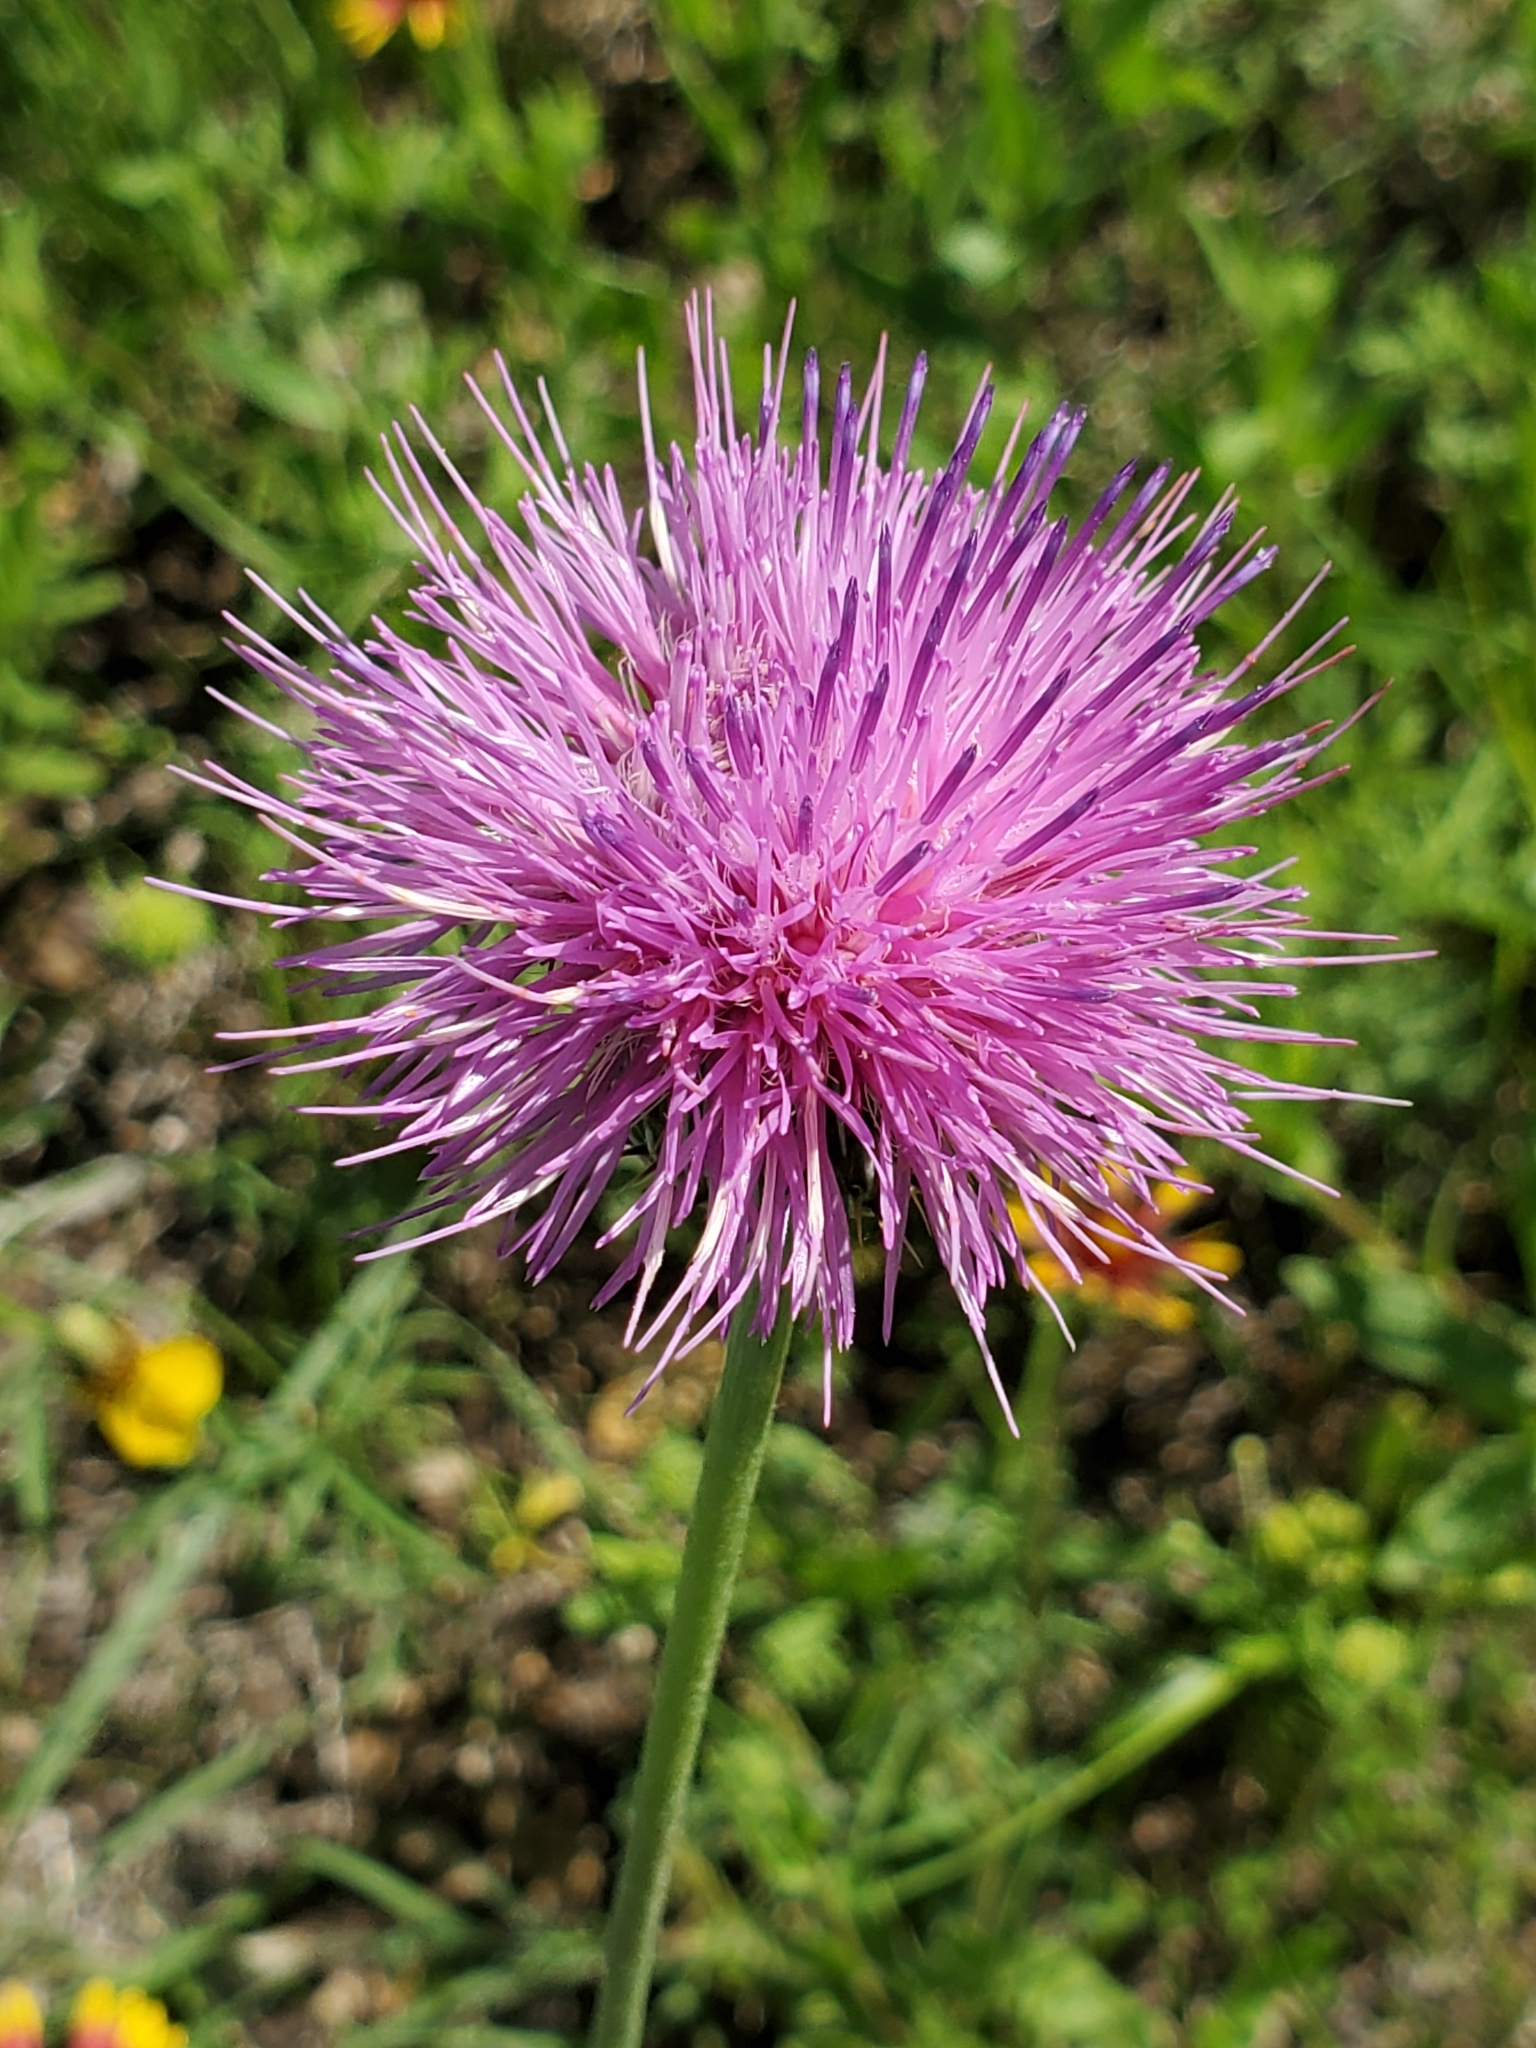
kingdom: Plantae
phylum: Tracheophyta
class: Magnoliopsida
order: Asterales
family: Asteraceae
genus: Cirsium
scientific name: Cirsium texanum
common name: Texas purple thistle
